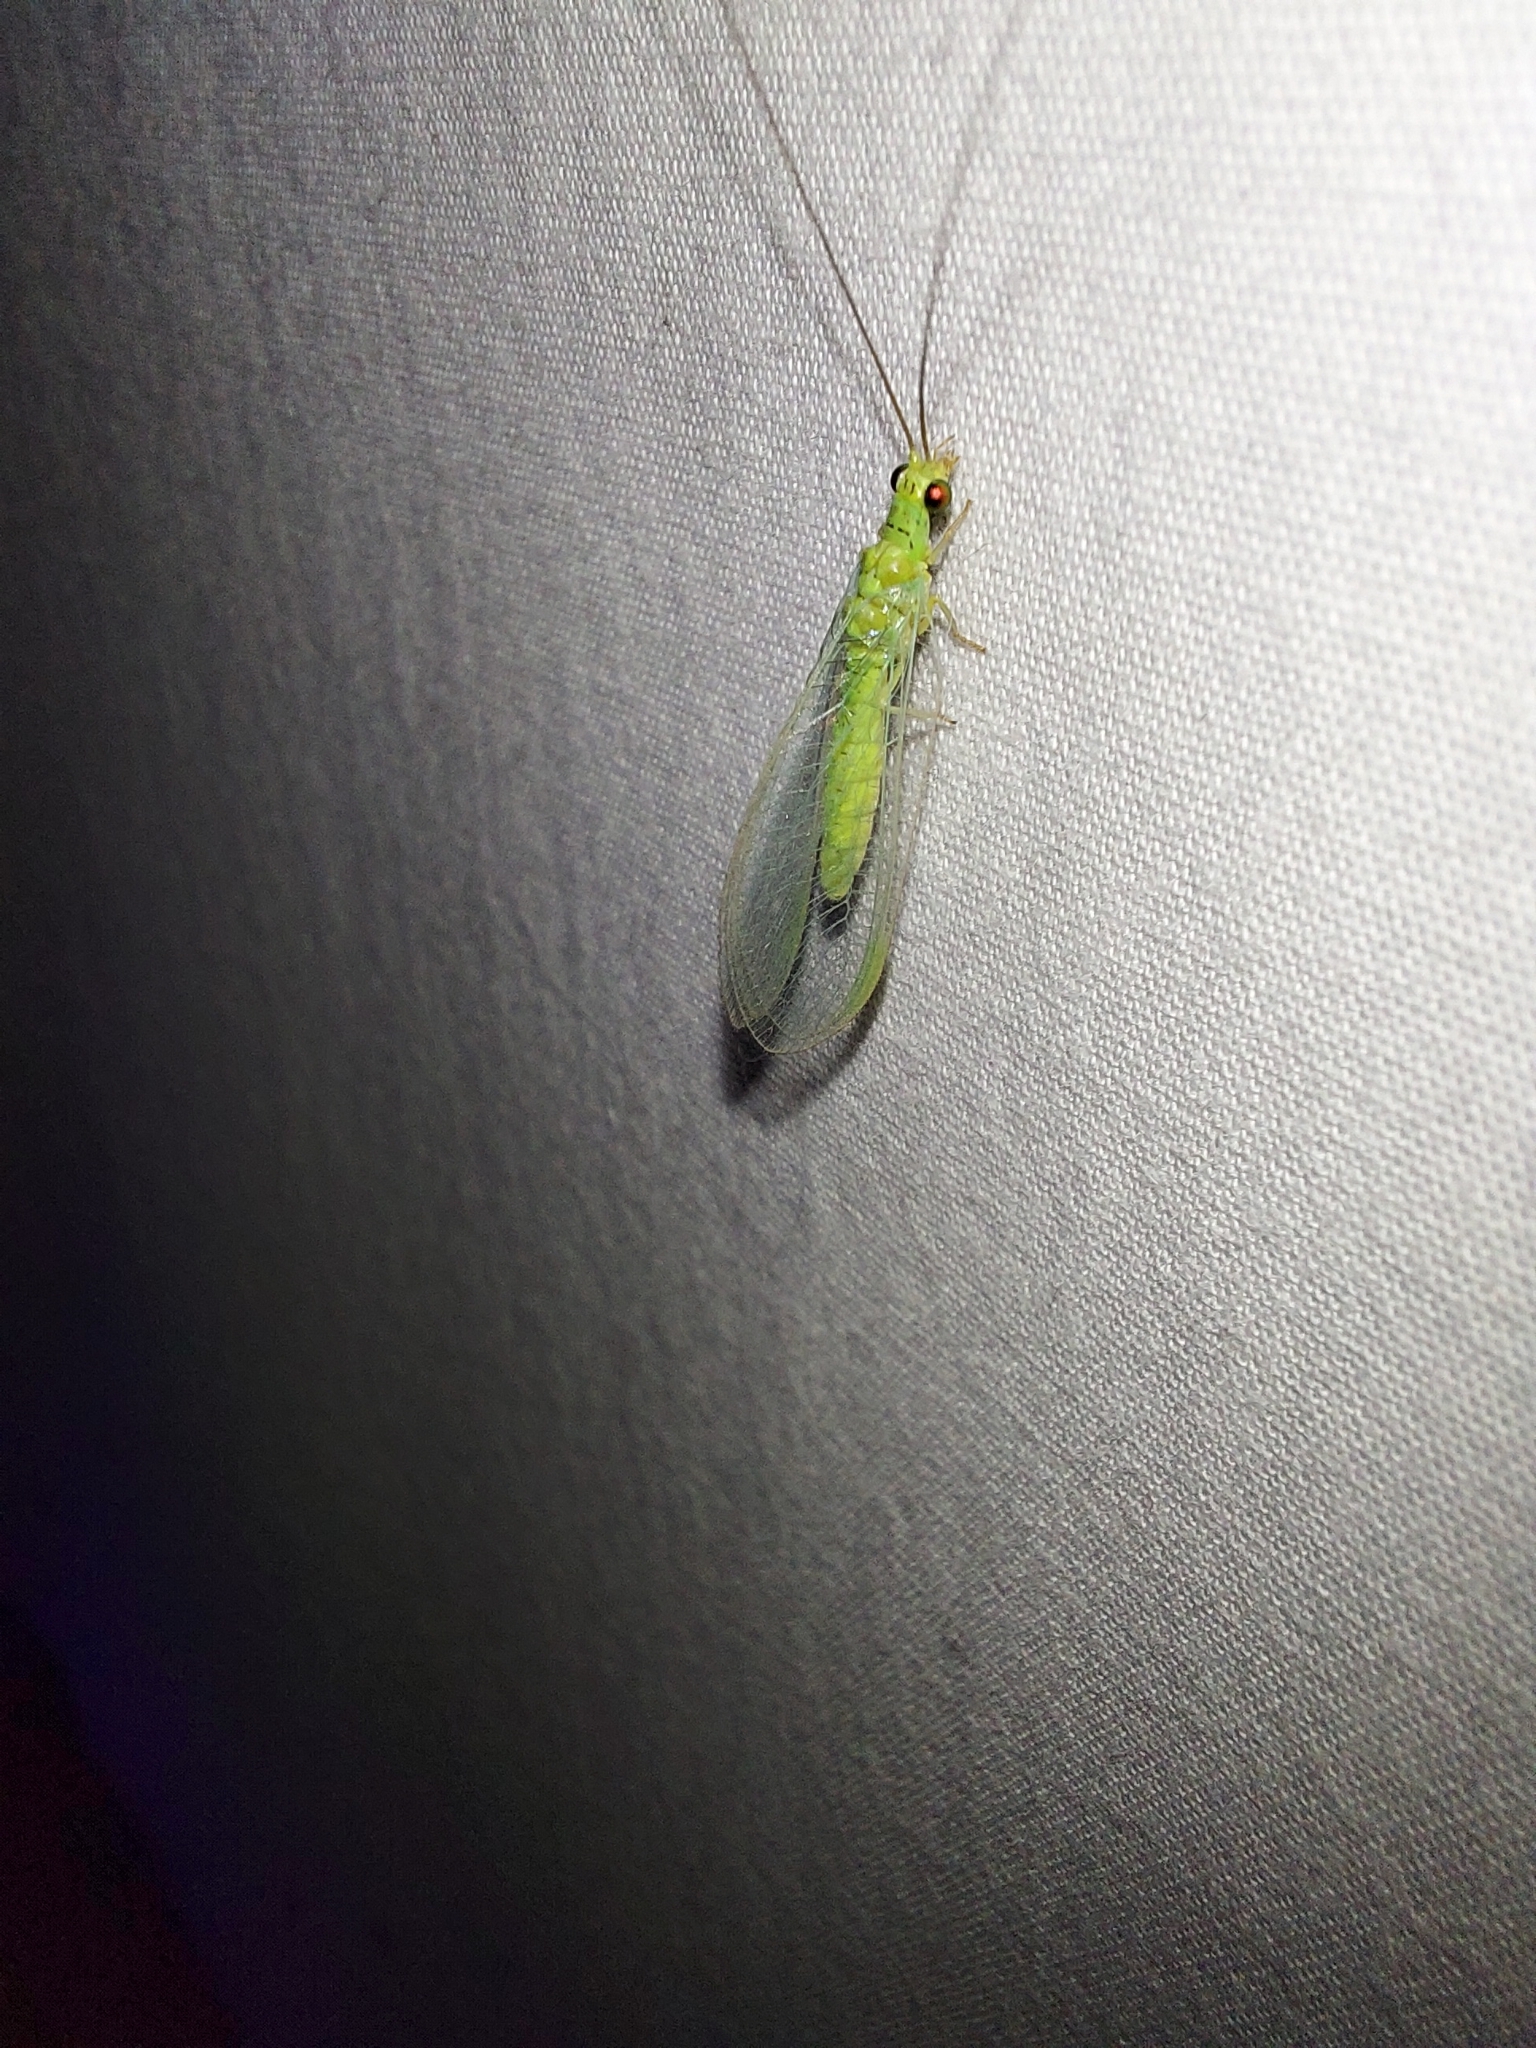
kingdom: Animalia
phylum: Arthropoda
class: Insecta
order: Neuroptera
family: Chrysopidae
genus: Plesiochrysa
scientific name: Plesiochrysa ramburi
